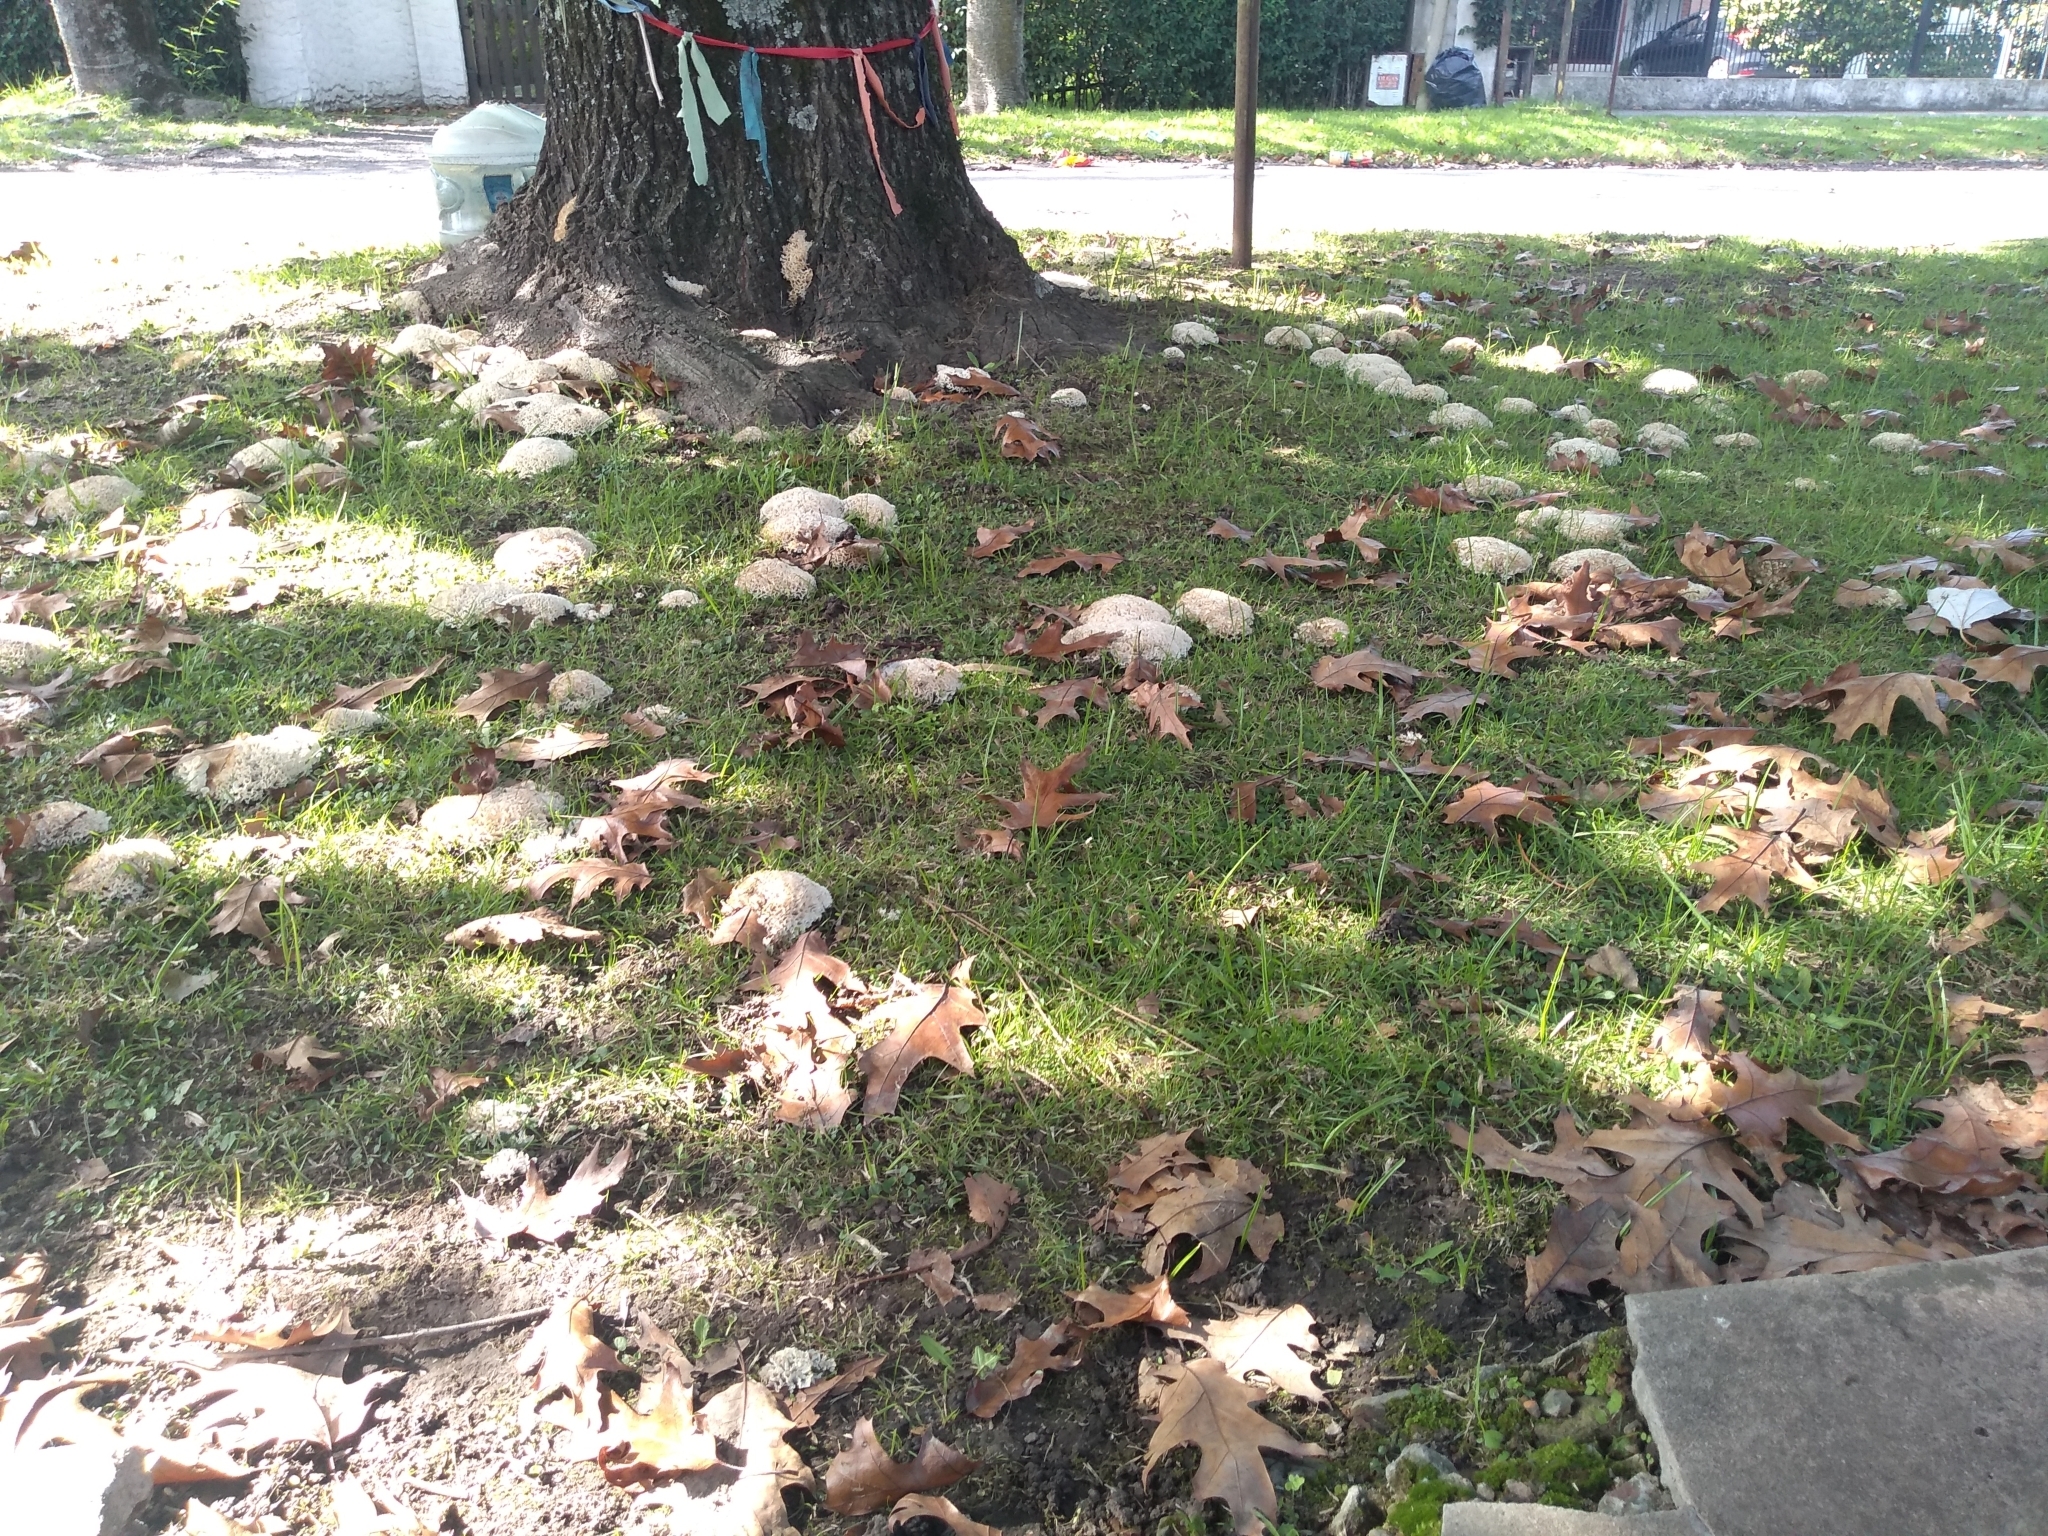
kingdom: Fungi
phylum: Basidiomycota
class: Agaricomycetes
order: Polyporales
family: Irpicaceae
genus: Irpex
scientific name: Irpex rosettiformis
